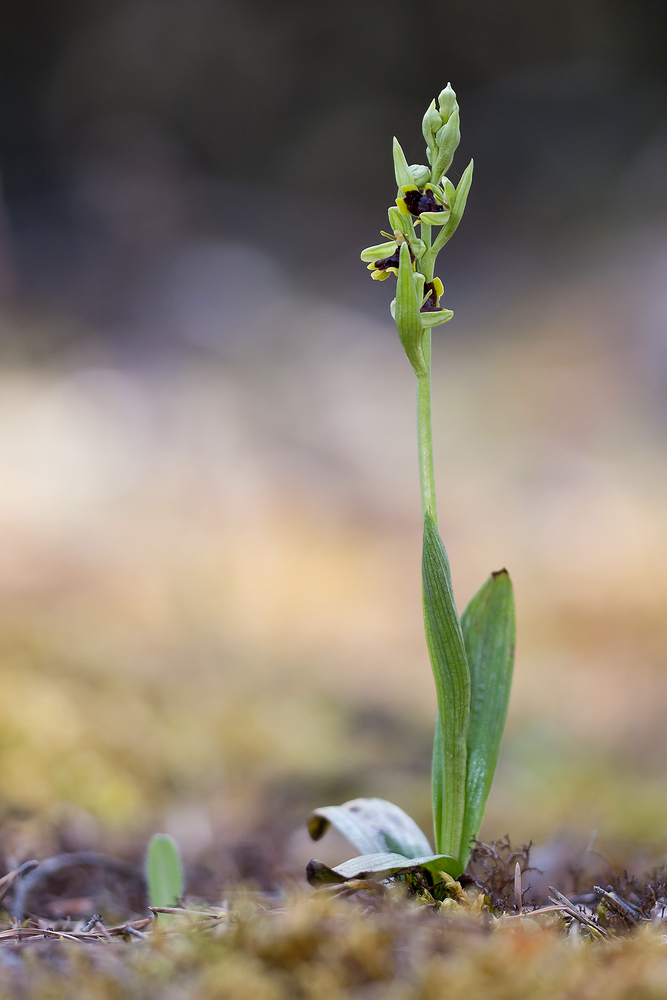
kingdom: Plantae
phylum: Tracheophyta
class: Liliopsida
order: Asparagales
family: Orchidaceae
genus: Ophrys
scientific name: Ophrys insectifera
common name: Fly orchid
